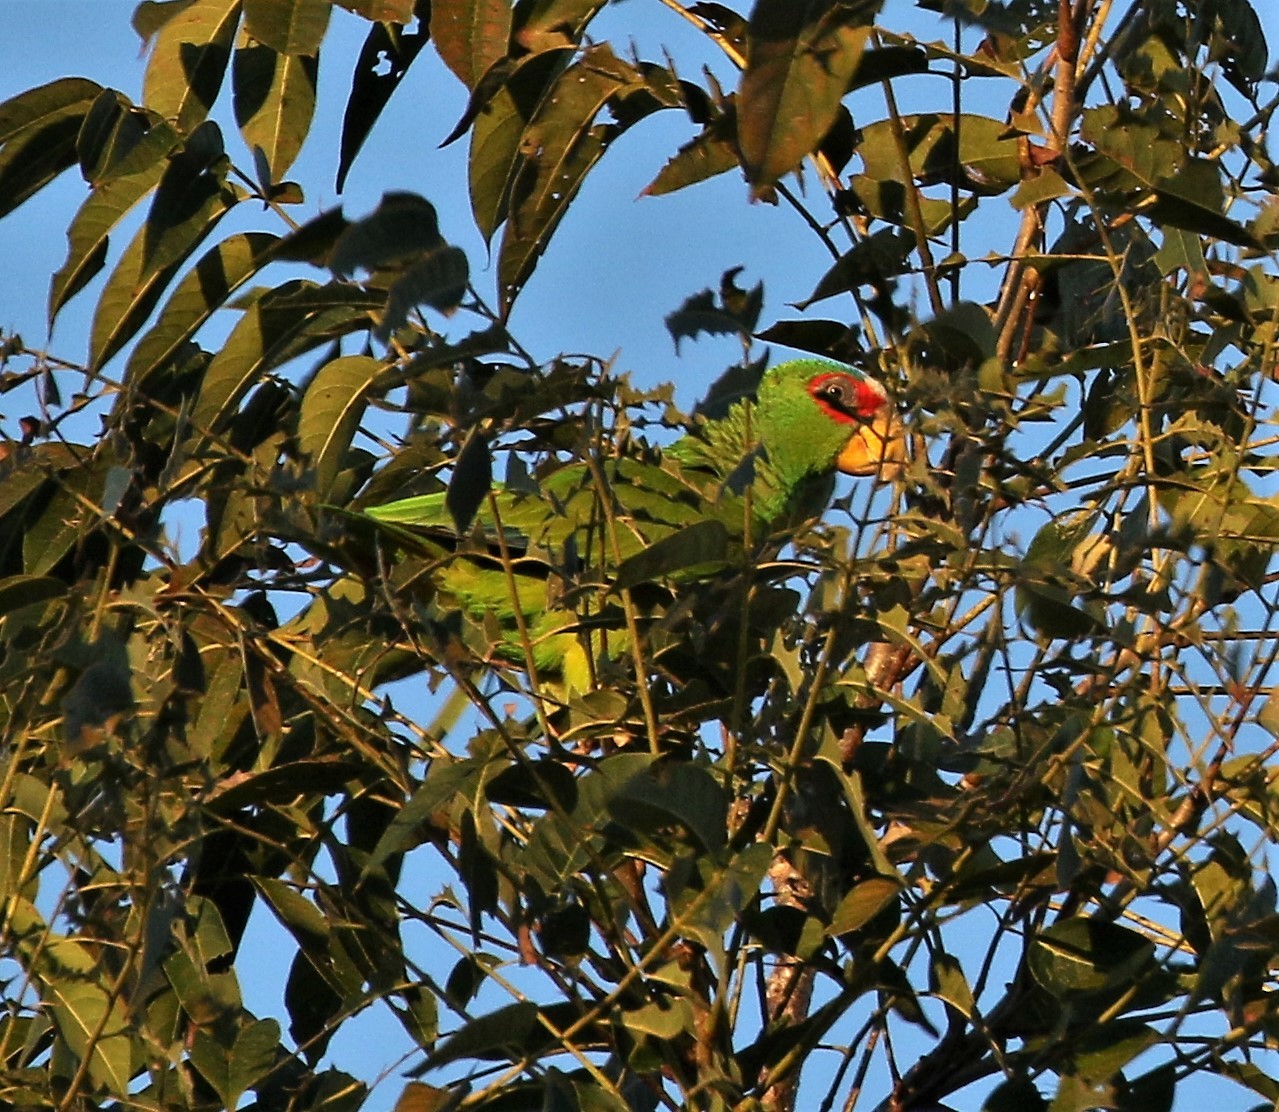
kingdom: Animalia
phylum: Chordata
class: Aves
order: Psittaciformes
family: Psittacidae
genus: Amazona
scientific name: Amazona albifrons
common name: White-fronted amazon
